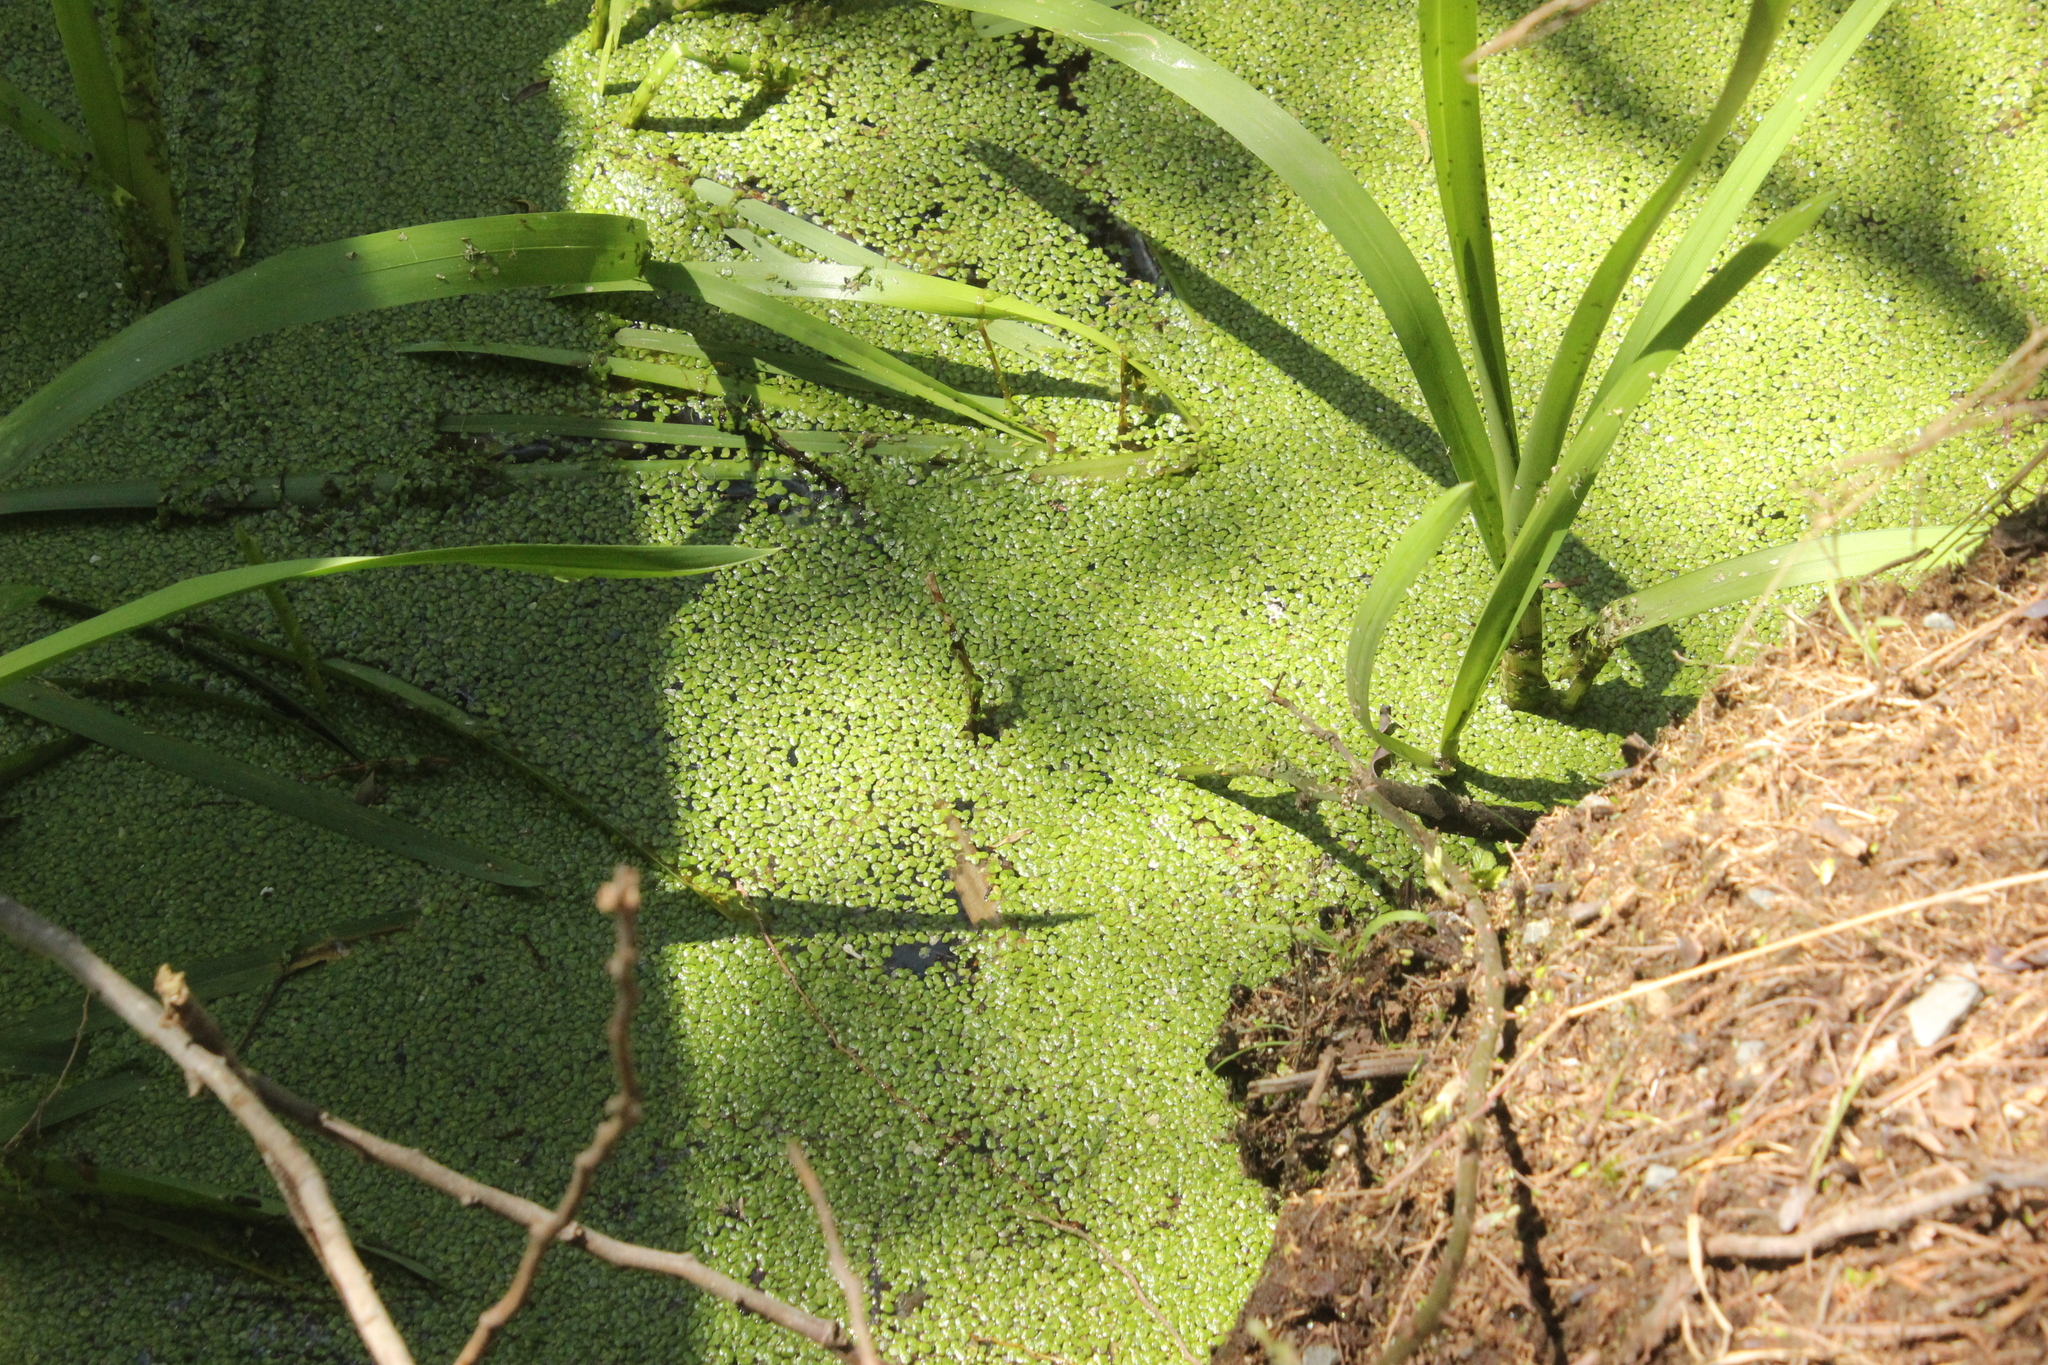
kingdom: Plantae
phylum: Tracheophyta
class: Liliopsida
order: Alismatales
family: Araceae
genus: Spirodela
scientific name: Spirodela punctata
